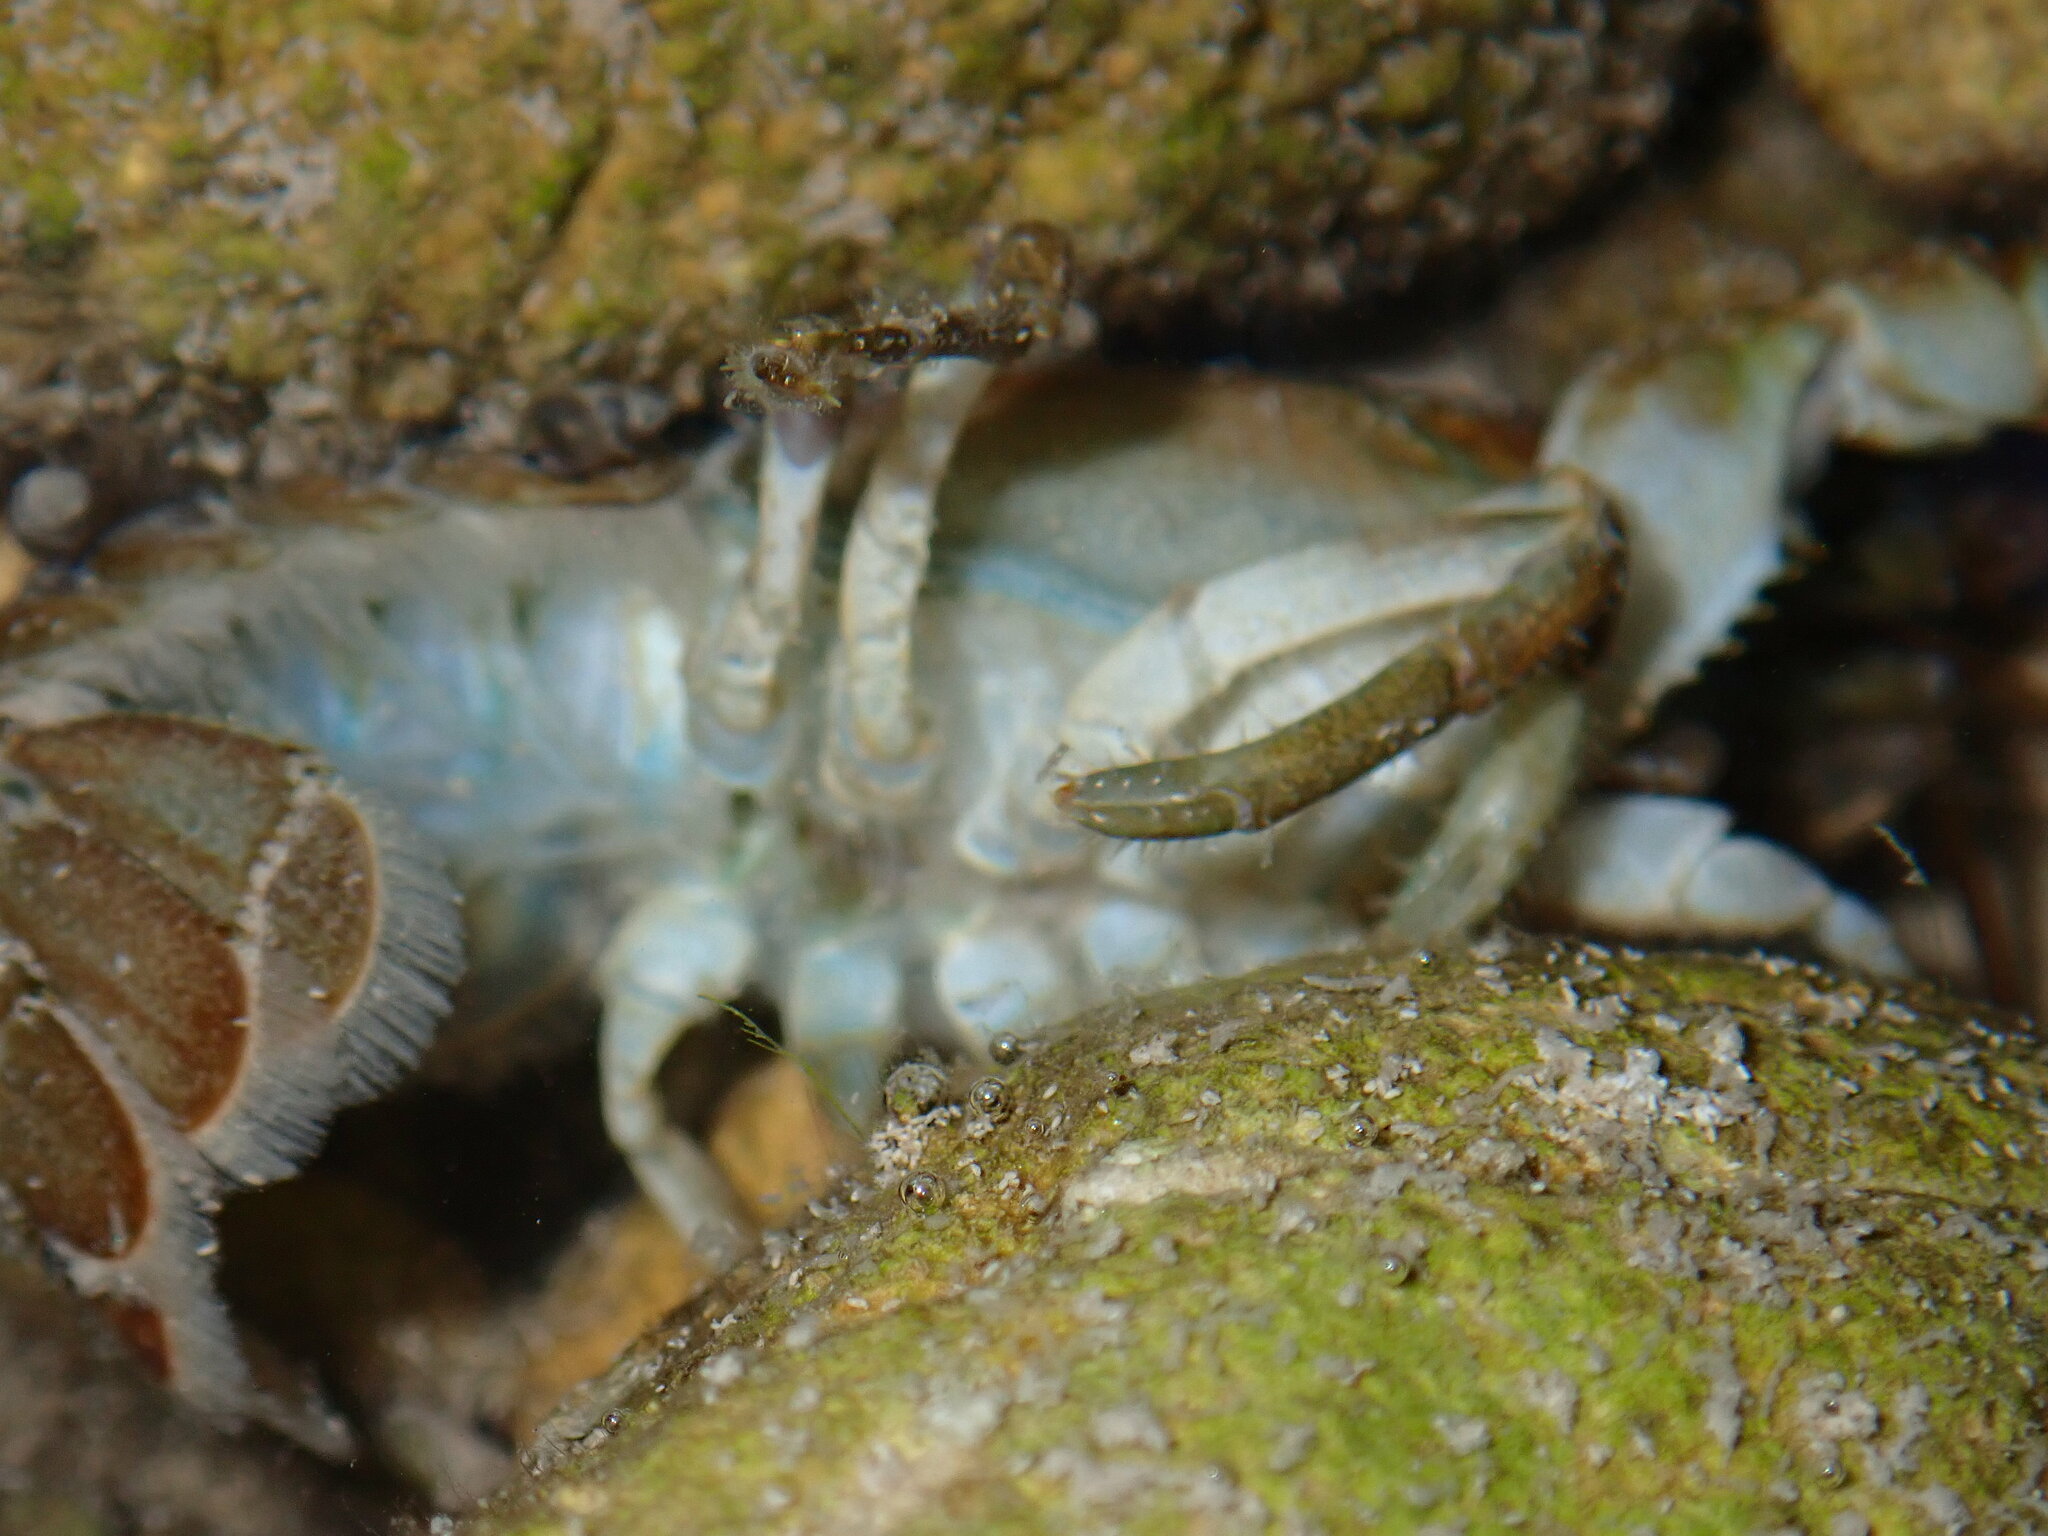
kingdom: Animalia
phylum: Arthropoda
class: Malacostraca
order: Decapoda
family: Astacidae
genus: Austropotamobius
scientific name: Austropotamobius pallipes
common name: White-clawed crayfish
